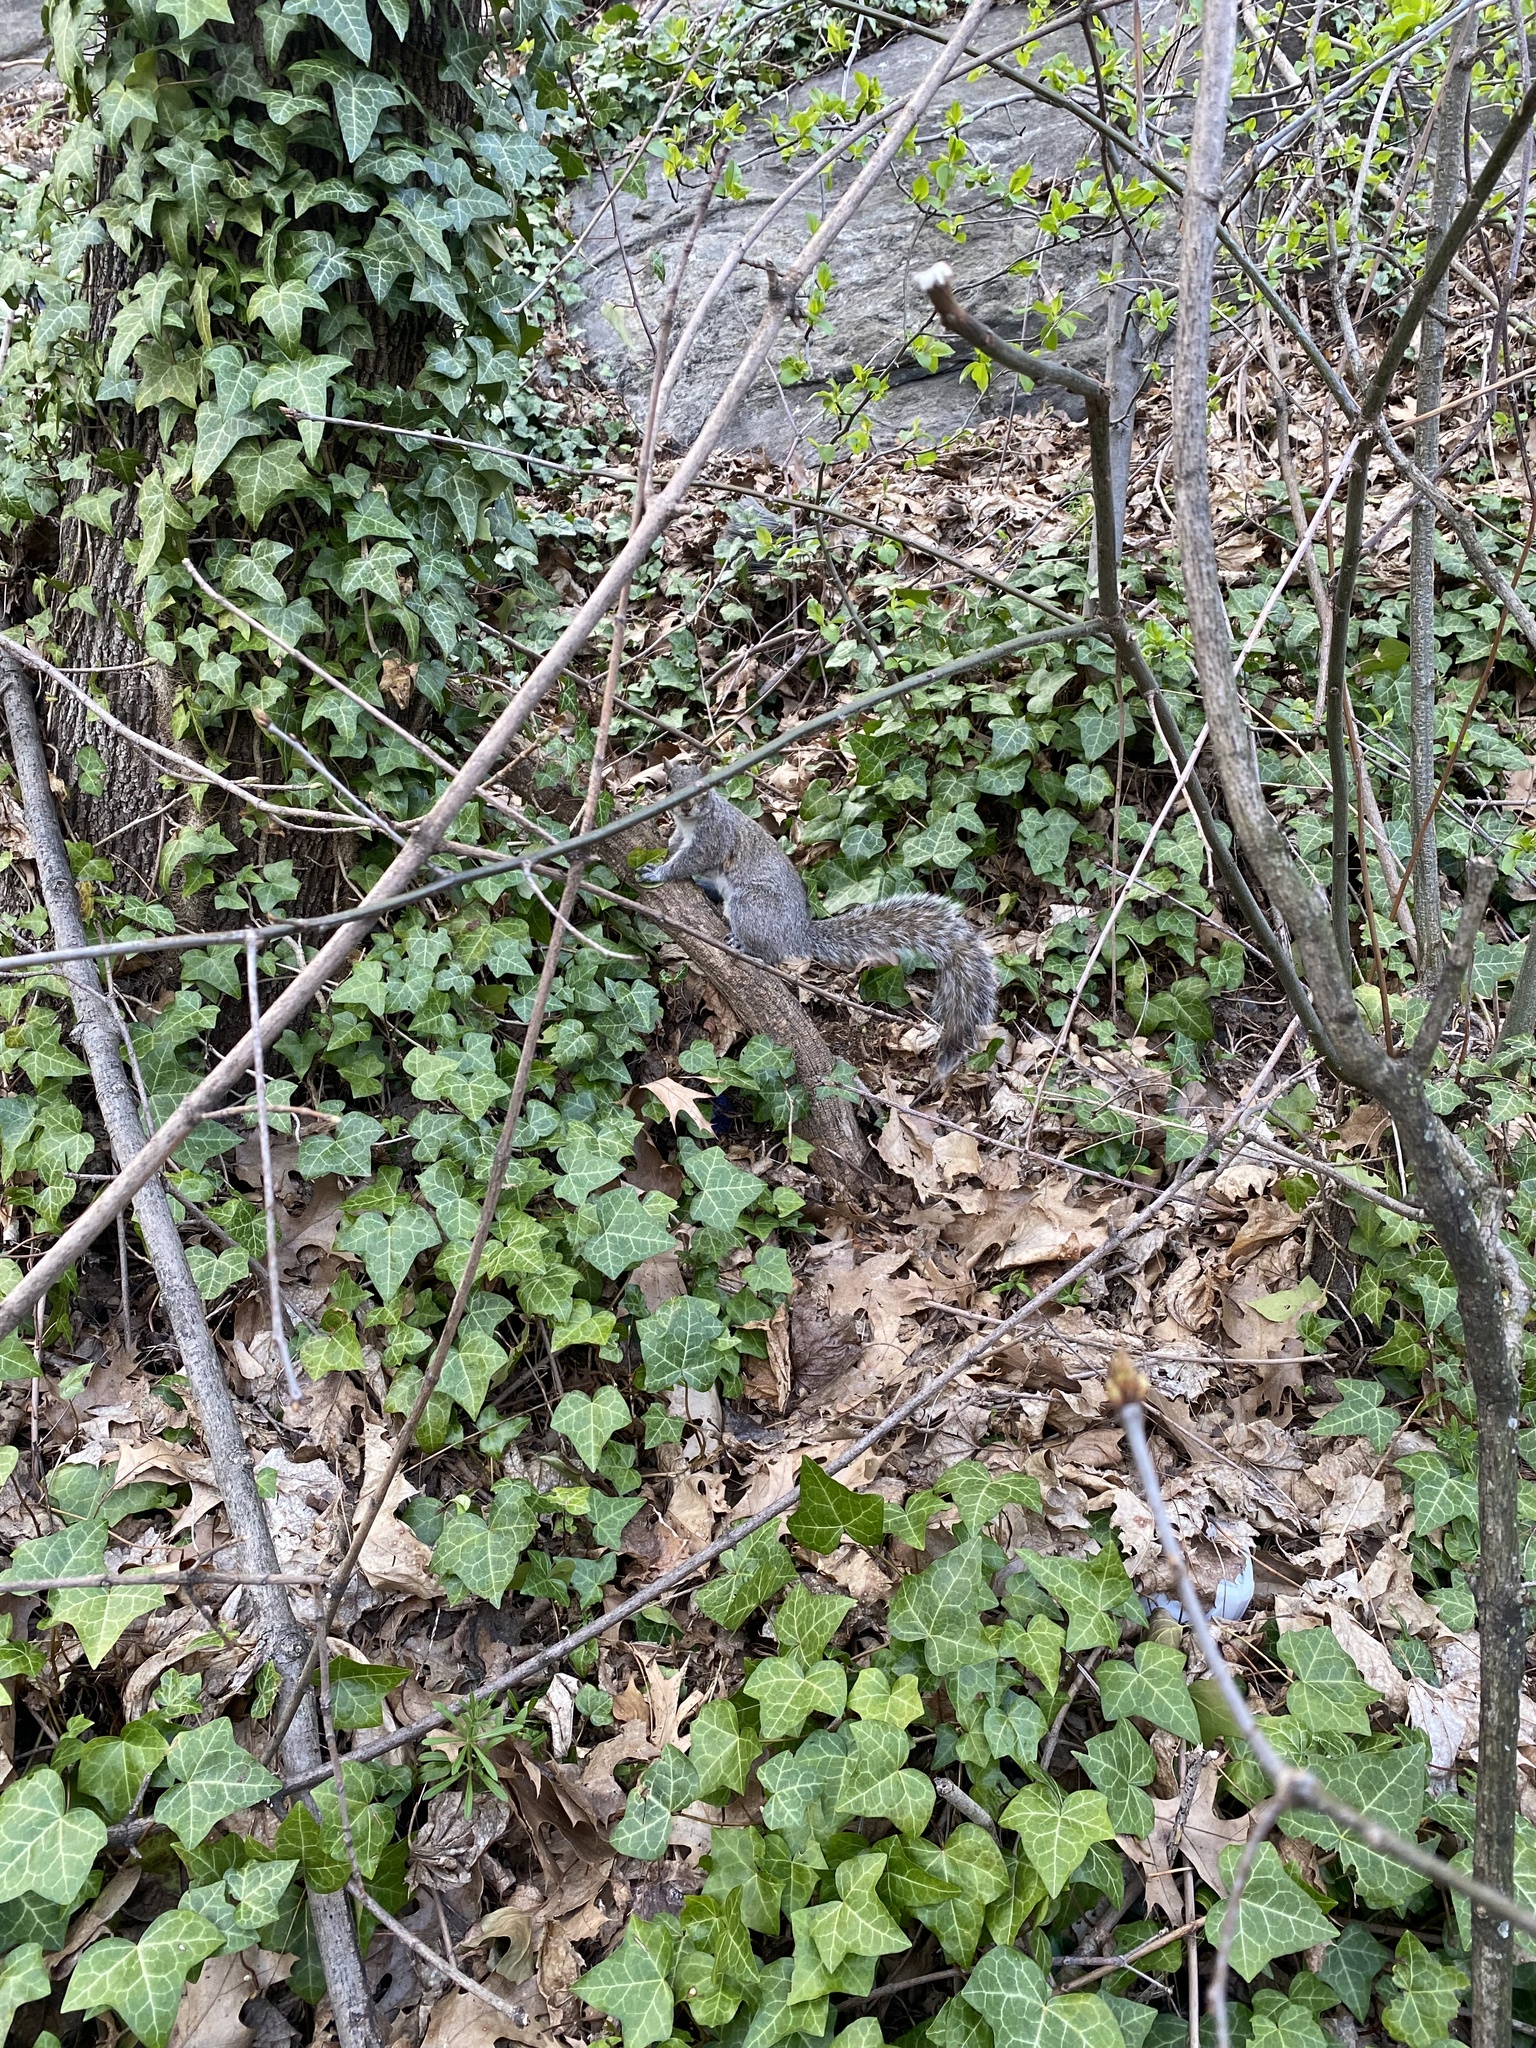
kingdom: Animalia
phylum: Chordata
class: Mammalia
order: Rodentia
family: Sciuridae
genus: Sciurus
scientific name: Sciurus carolinensis
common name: Eastern gray squirrel
